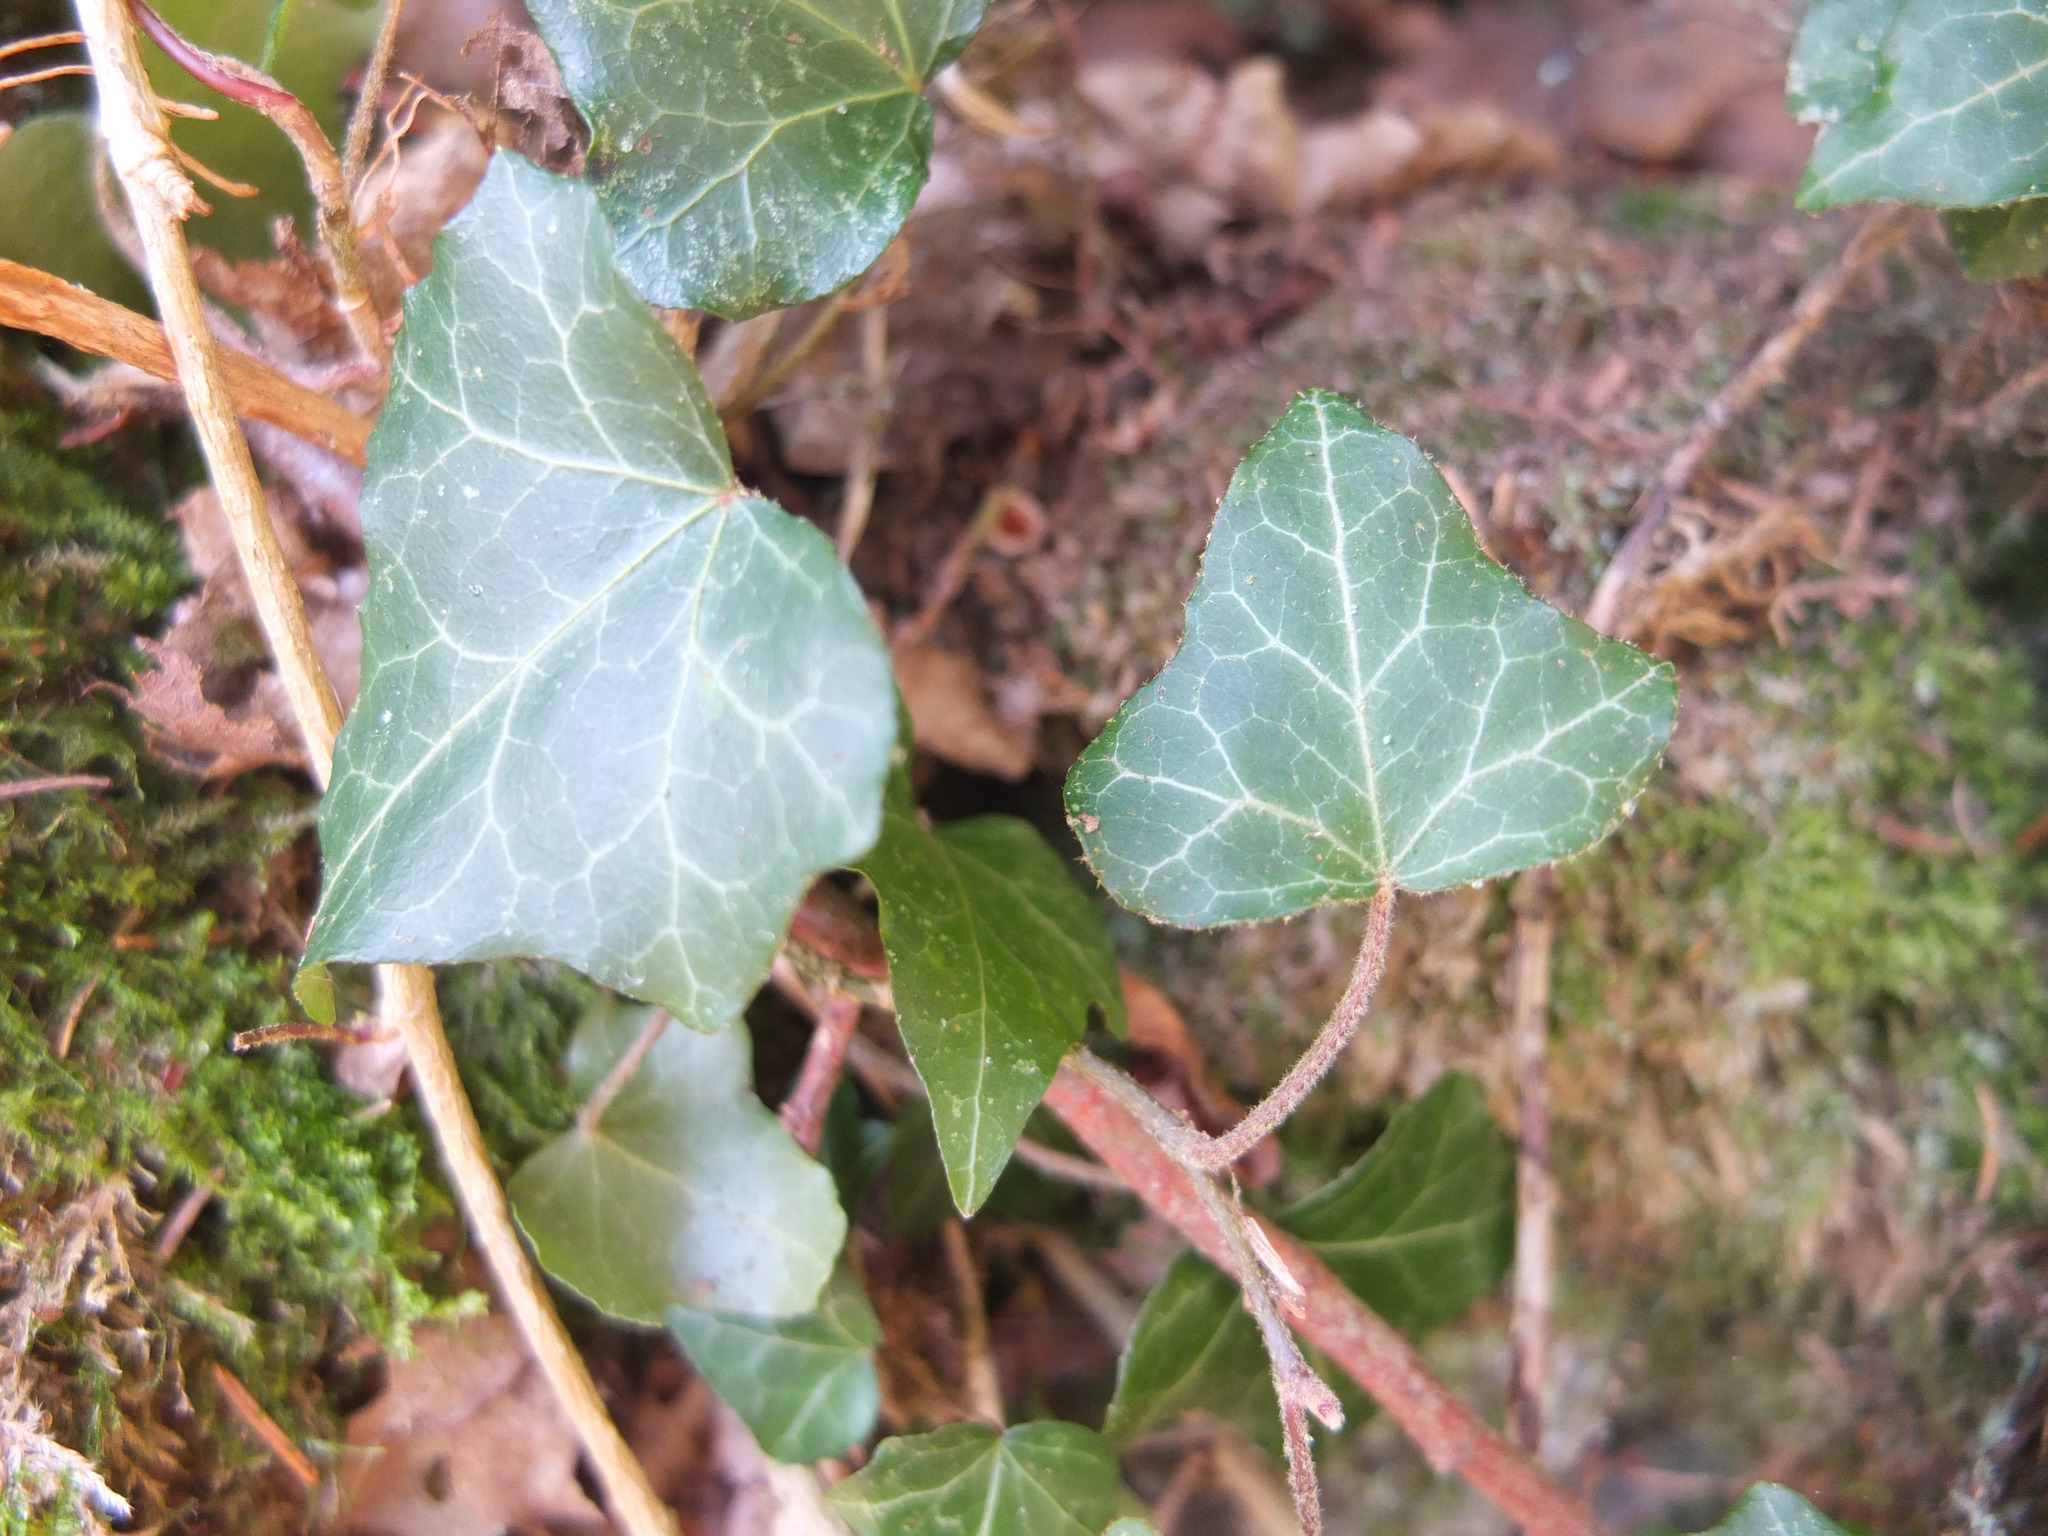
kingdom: Plantae
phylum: Tracheophyta
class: Magnoliopsida
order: Apiales
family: Araliaceae
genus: Hedera
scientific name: Hedera helix
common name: Ivy
